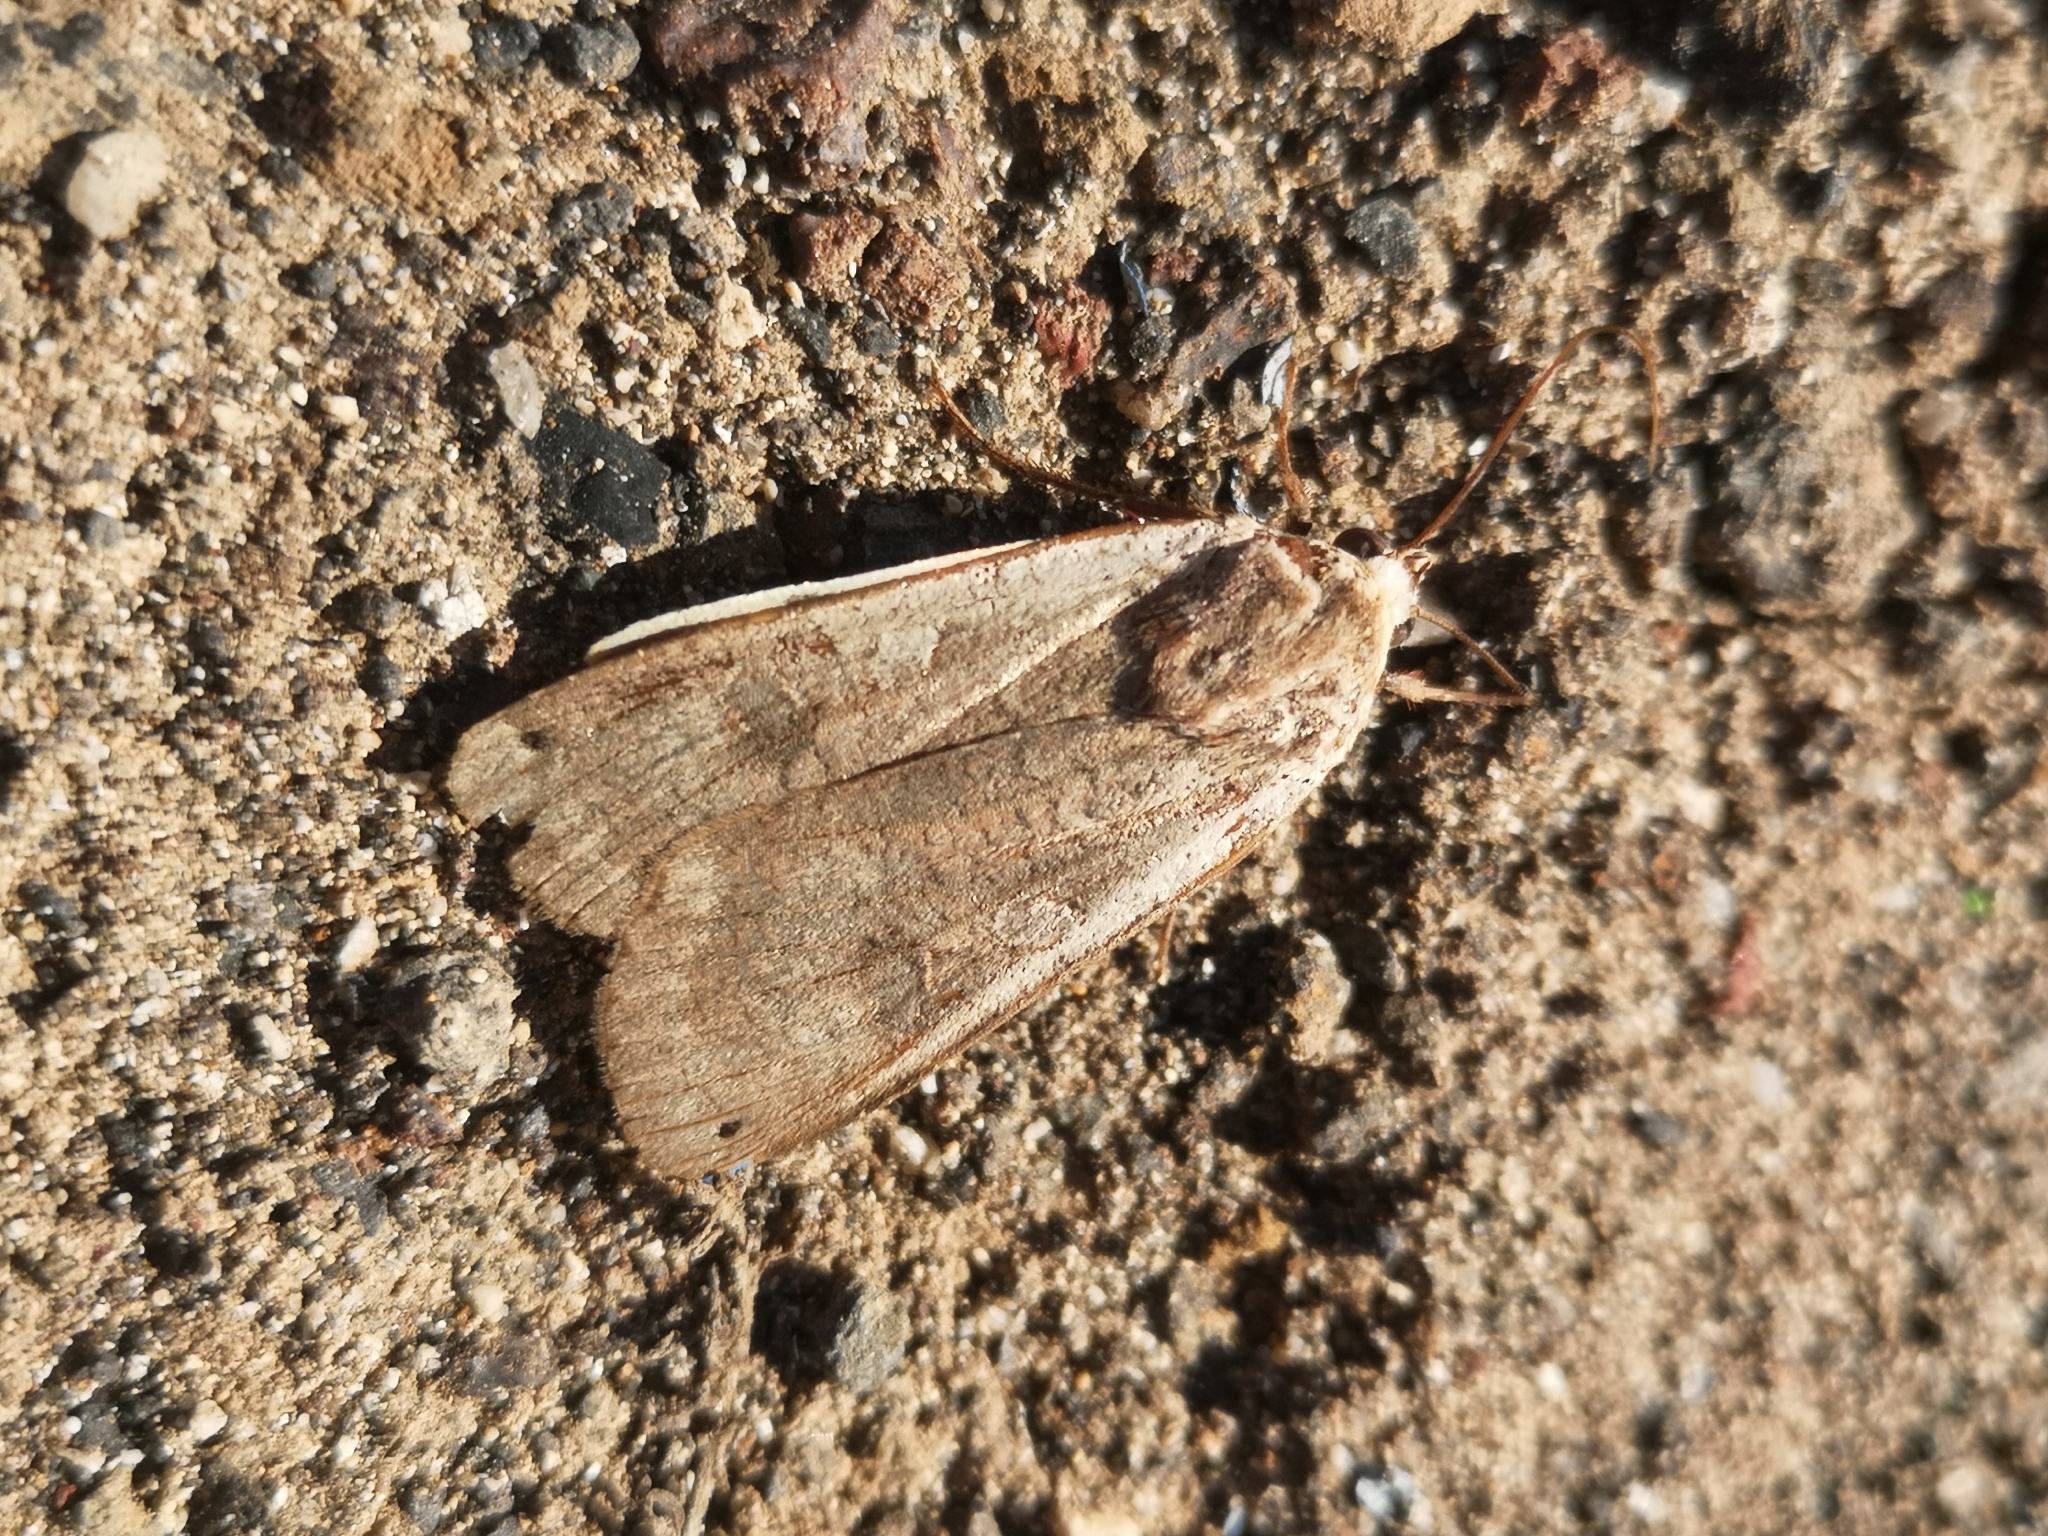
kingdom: Animalia
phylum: Arthropoda
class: Insecta
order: Lepidoptera
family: Noctuidae
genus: Noctua
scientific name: Noctua pronuba
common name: Large yellow underwing
